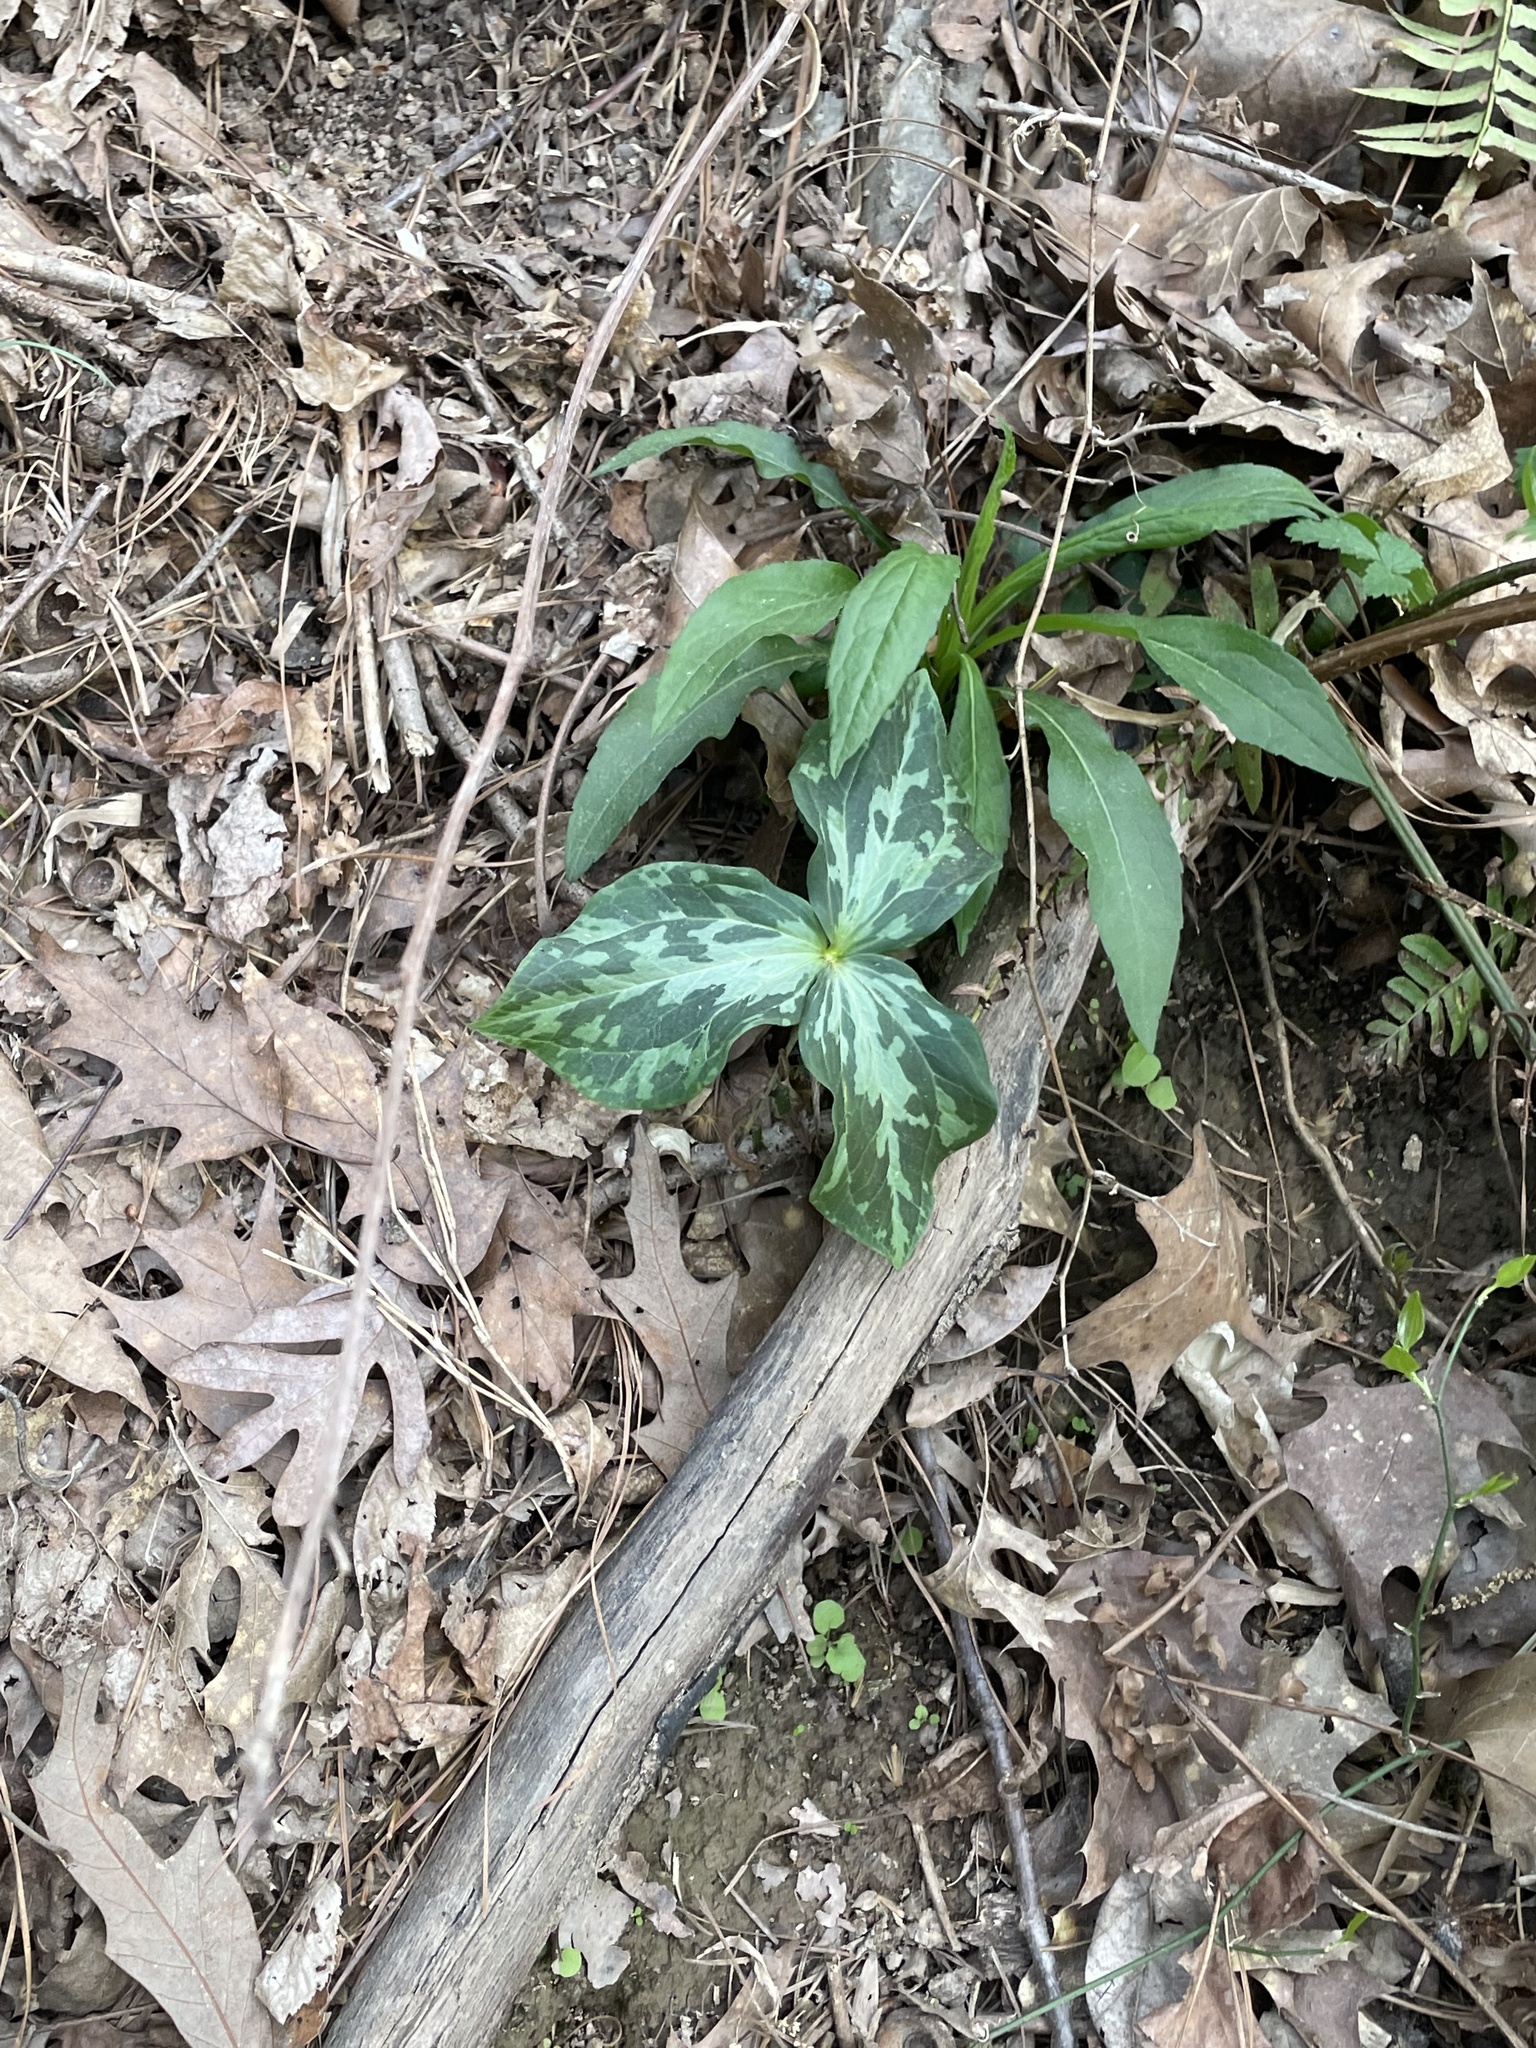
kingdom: Plantae
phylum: Tracheophyta
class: Liliopsida
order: Liliales
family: Melanthiaceae
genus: Trillium
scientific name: Trillium cuneatum
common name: Cuneate trillium
